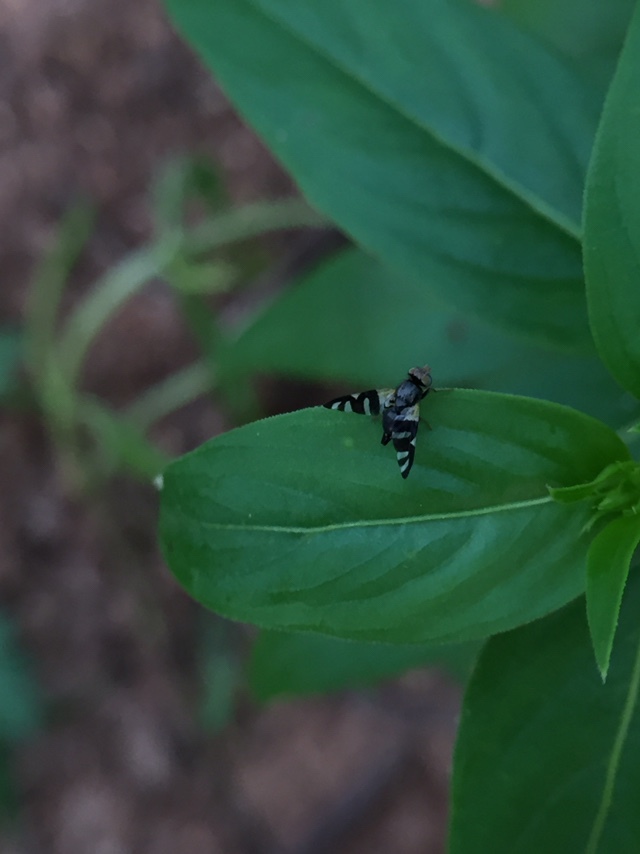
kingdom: Animalia
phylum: Arthropoda
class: Insecta
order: Diptera
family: Tephritidae
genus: Sphaeniscus
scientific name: Sphaeniscus quadrincisus
